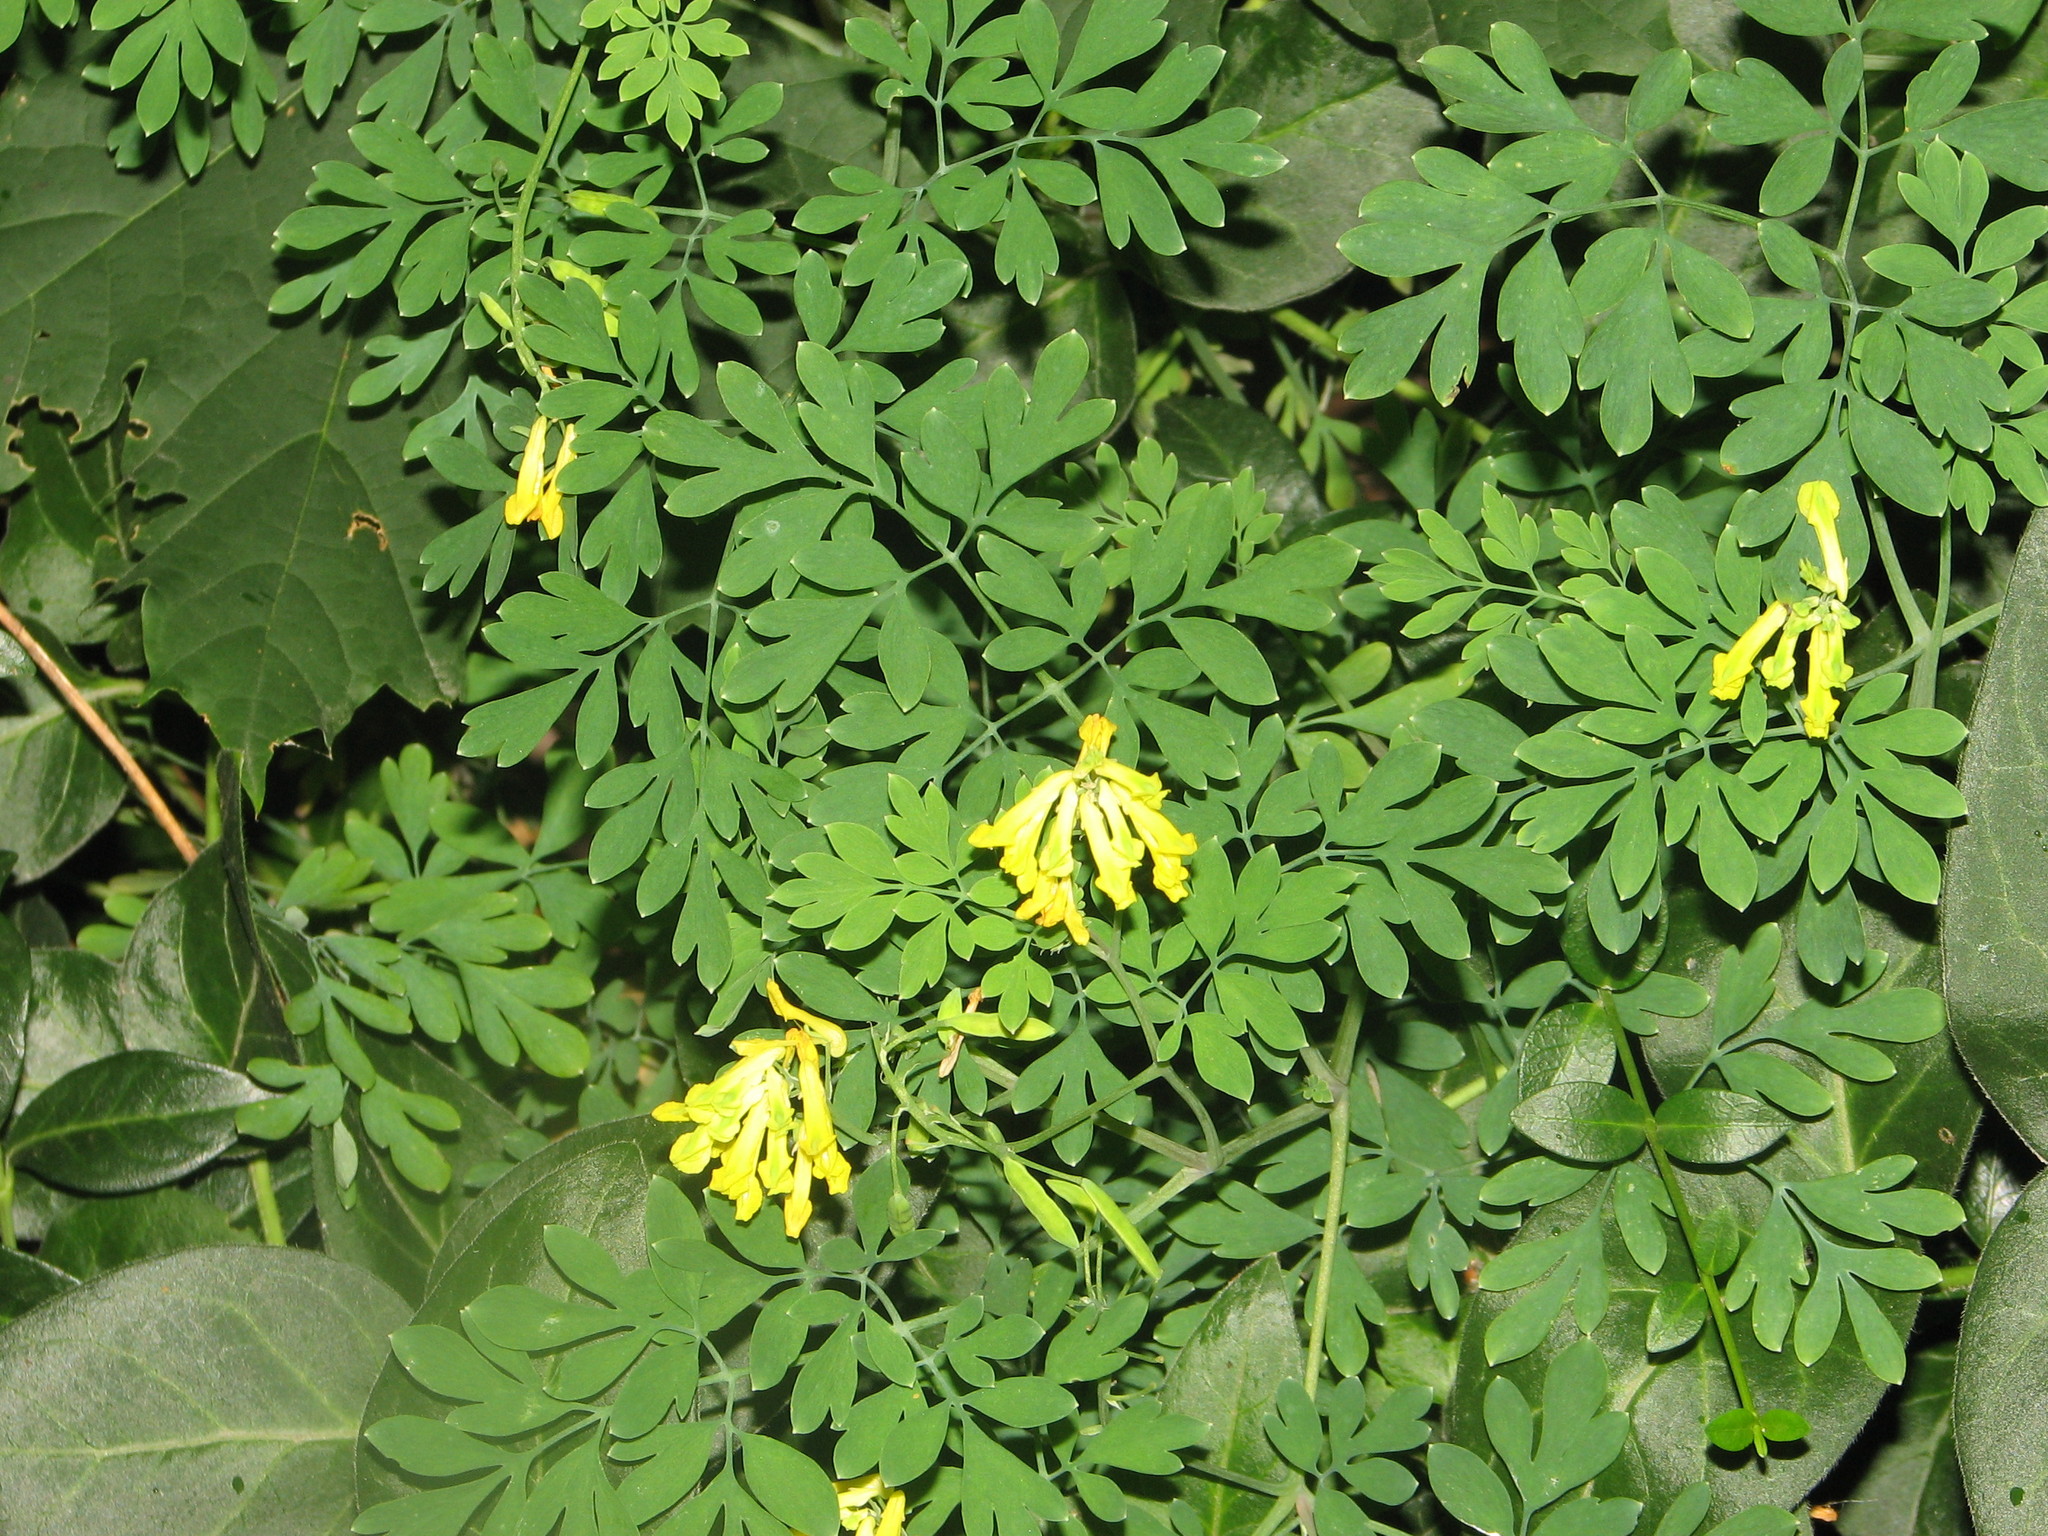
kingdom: Plantae
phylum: Tracheophyta
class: Magnoliopsida
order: Ranunculales
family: Papaveraceae
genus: Pseudofumaria
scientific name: Pseudofumaria lutea
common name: Yellow corydalis
